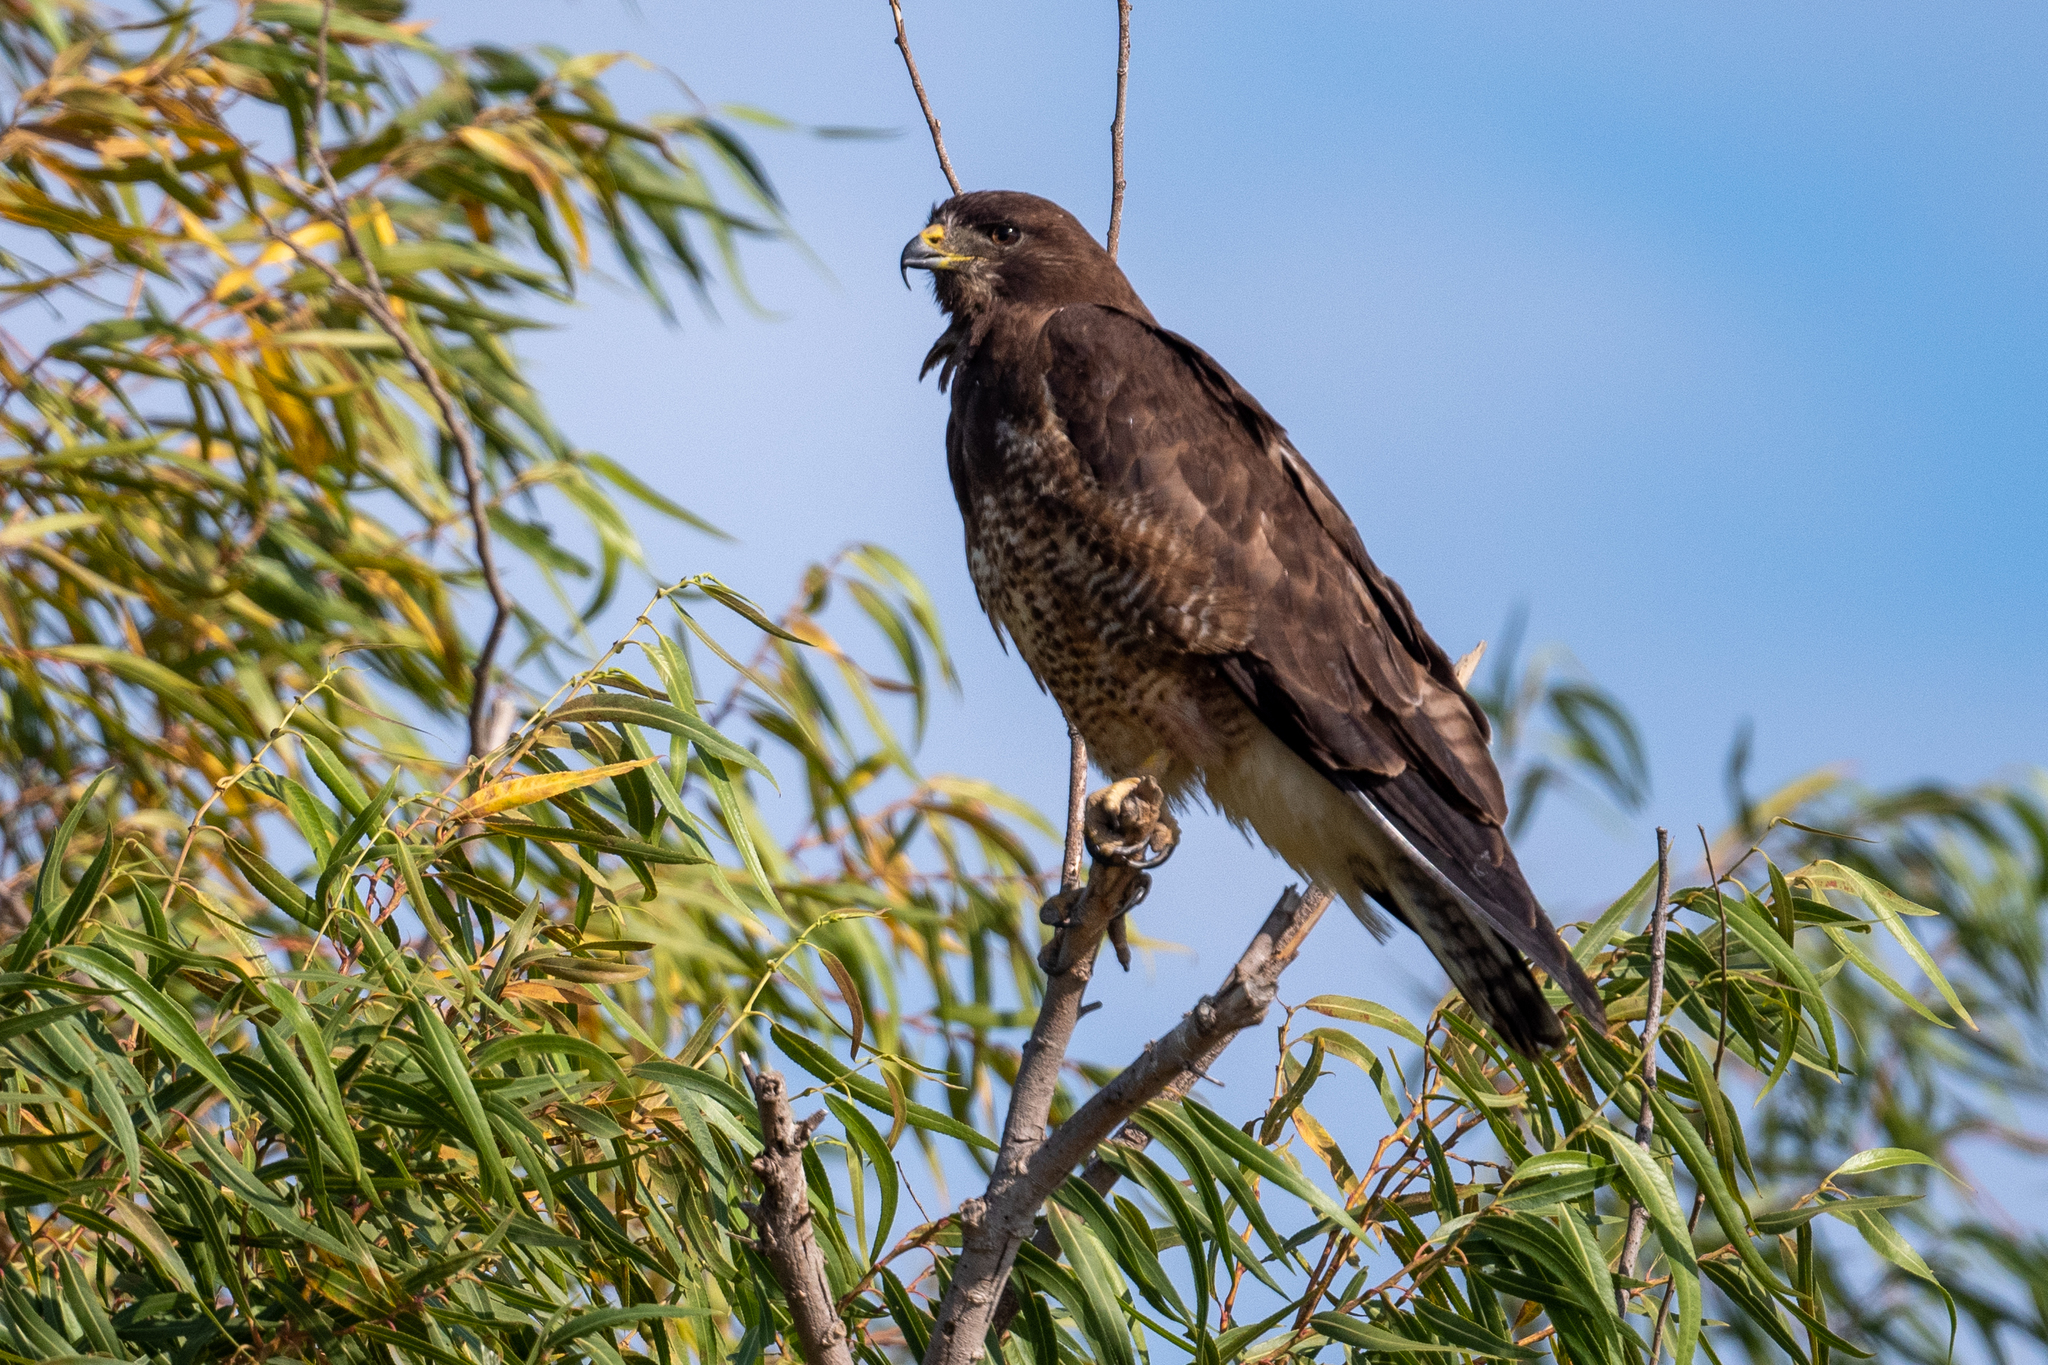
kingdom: Animalia
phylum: Chordata
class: Aves
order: Accipitriformes
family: Accipitridae
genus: Buteo
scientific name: Buteo swainsoni
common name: Swainson's hawk
